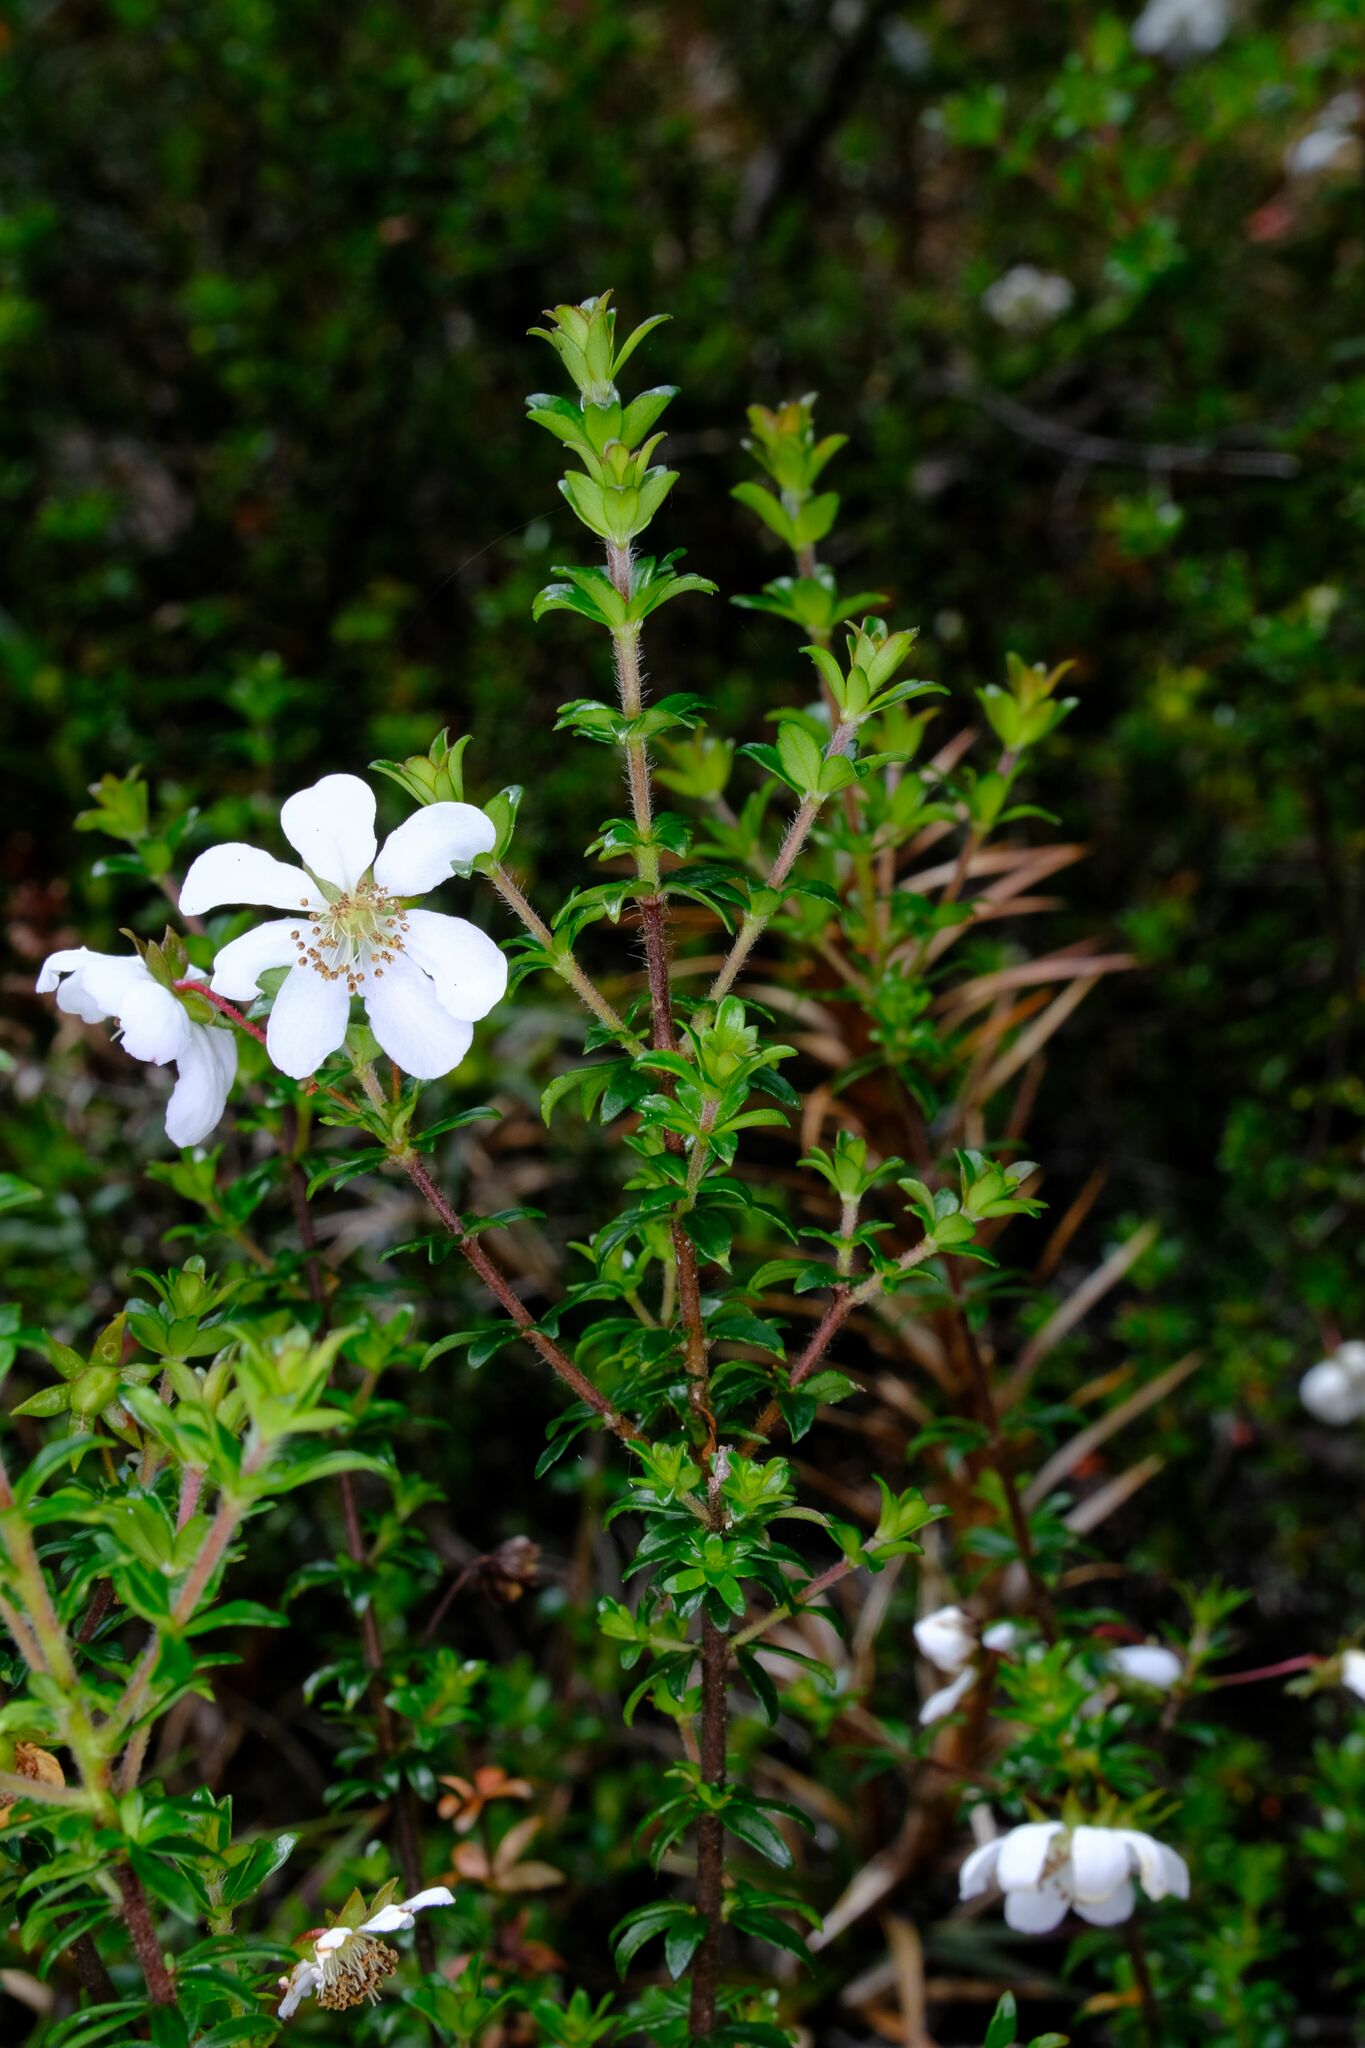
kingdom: Plantae
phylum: Tracheophyta
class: Magnoliopsida
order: Oxalidales
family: Cunoniaceae
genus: Bauera
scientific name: Bauera rubioides
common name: River-rose
